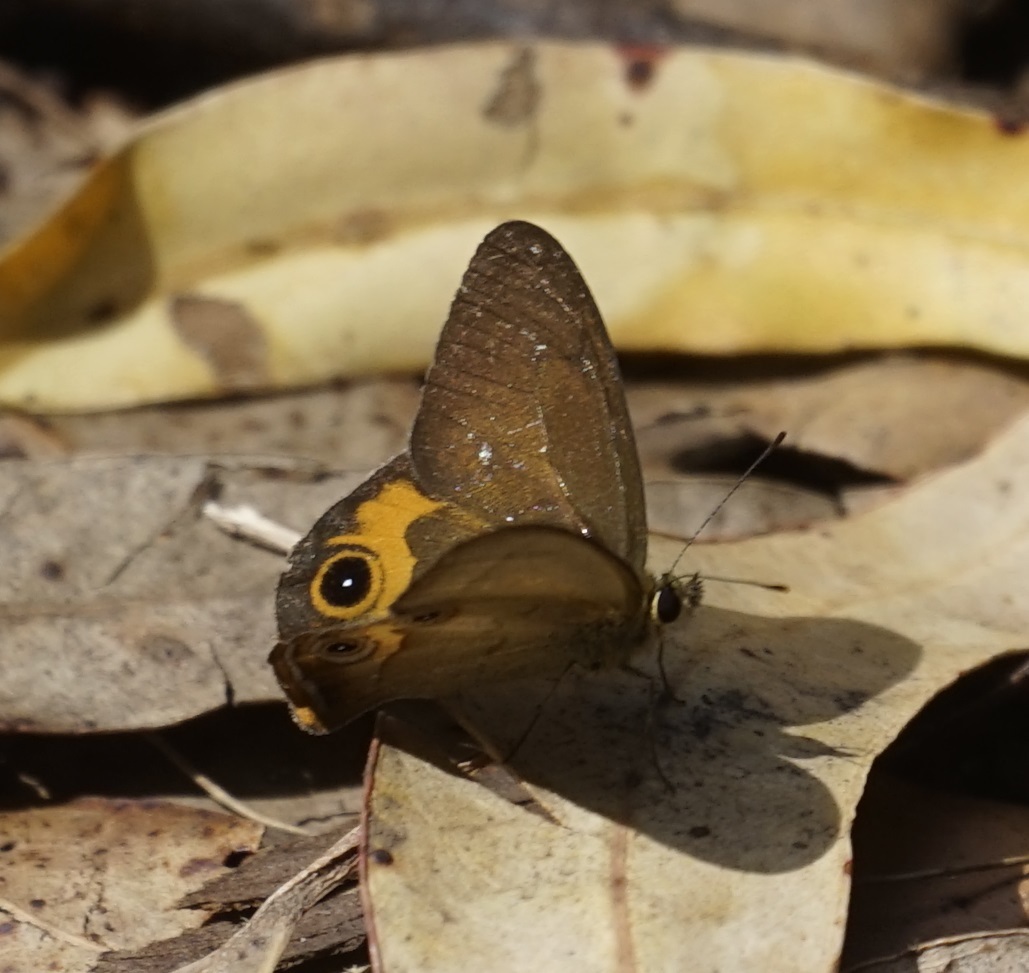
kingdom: Animalia
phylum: Arthropoda
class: Insecta
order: Lepidoptera
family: Nymphalidae
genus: Hypocysta
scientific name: Hypocysta metirius
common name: Brown ringlet
